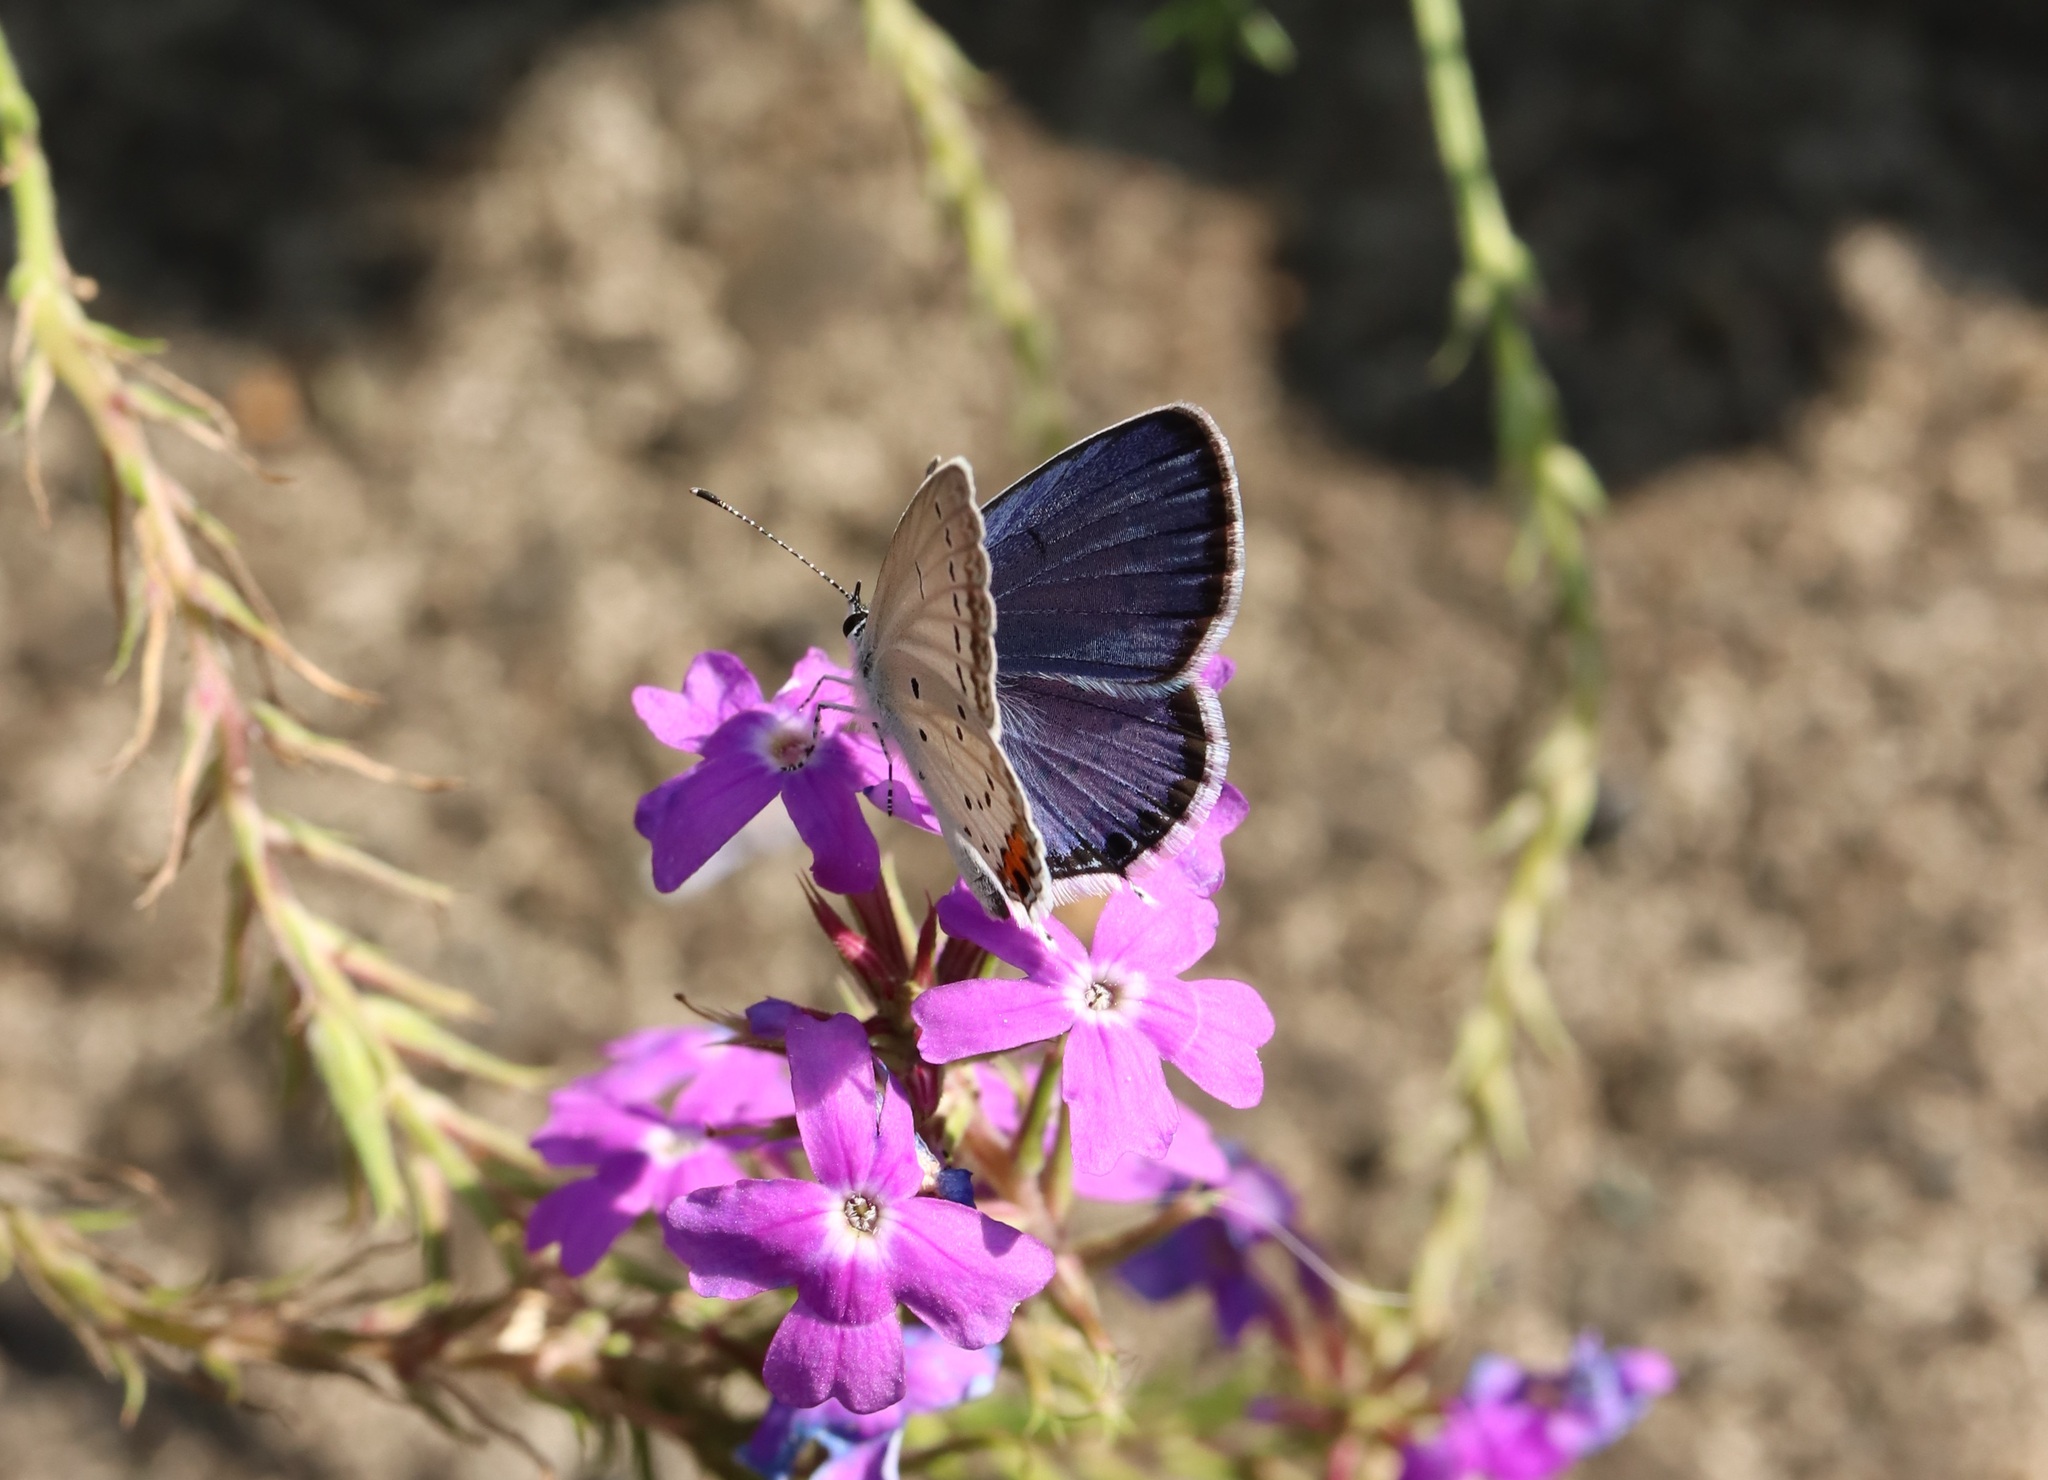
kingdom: Animalia
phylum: Arthropoda
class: Insecta
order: Lepidoptera
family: Lycaenidae
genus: Elkalyce
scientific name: Elkalyce argiades
